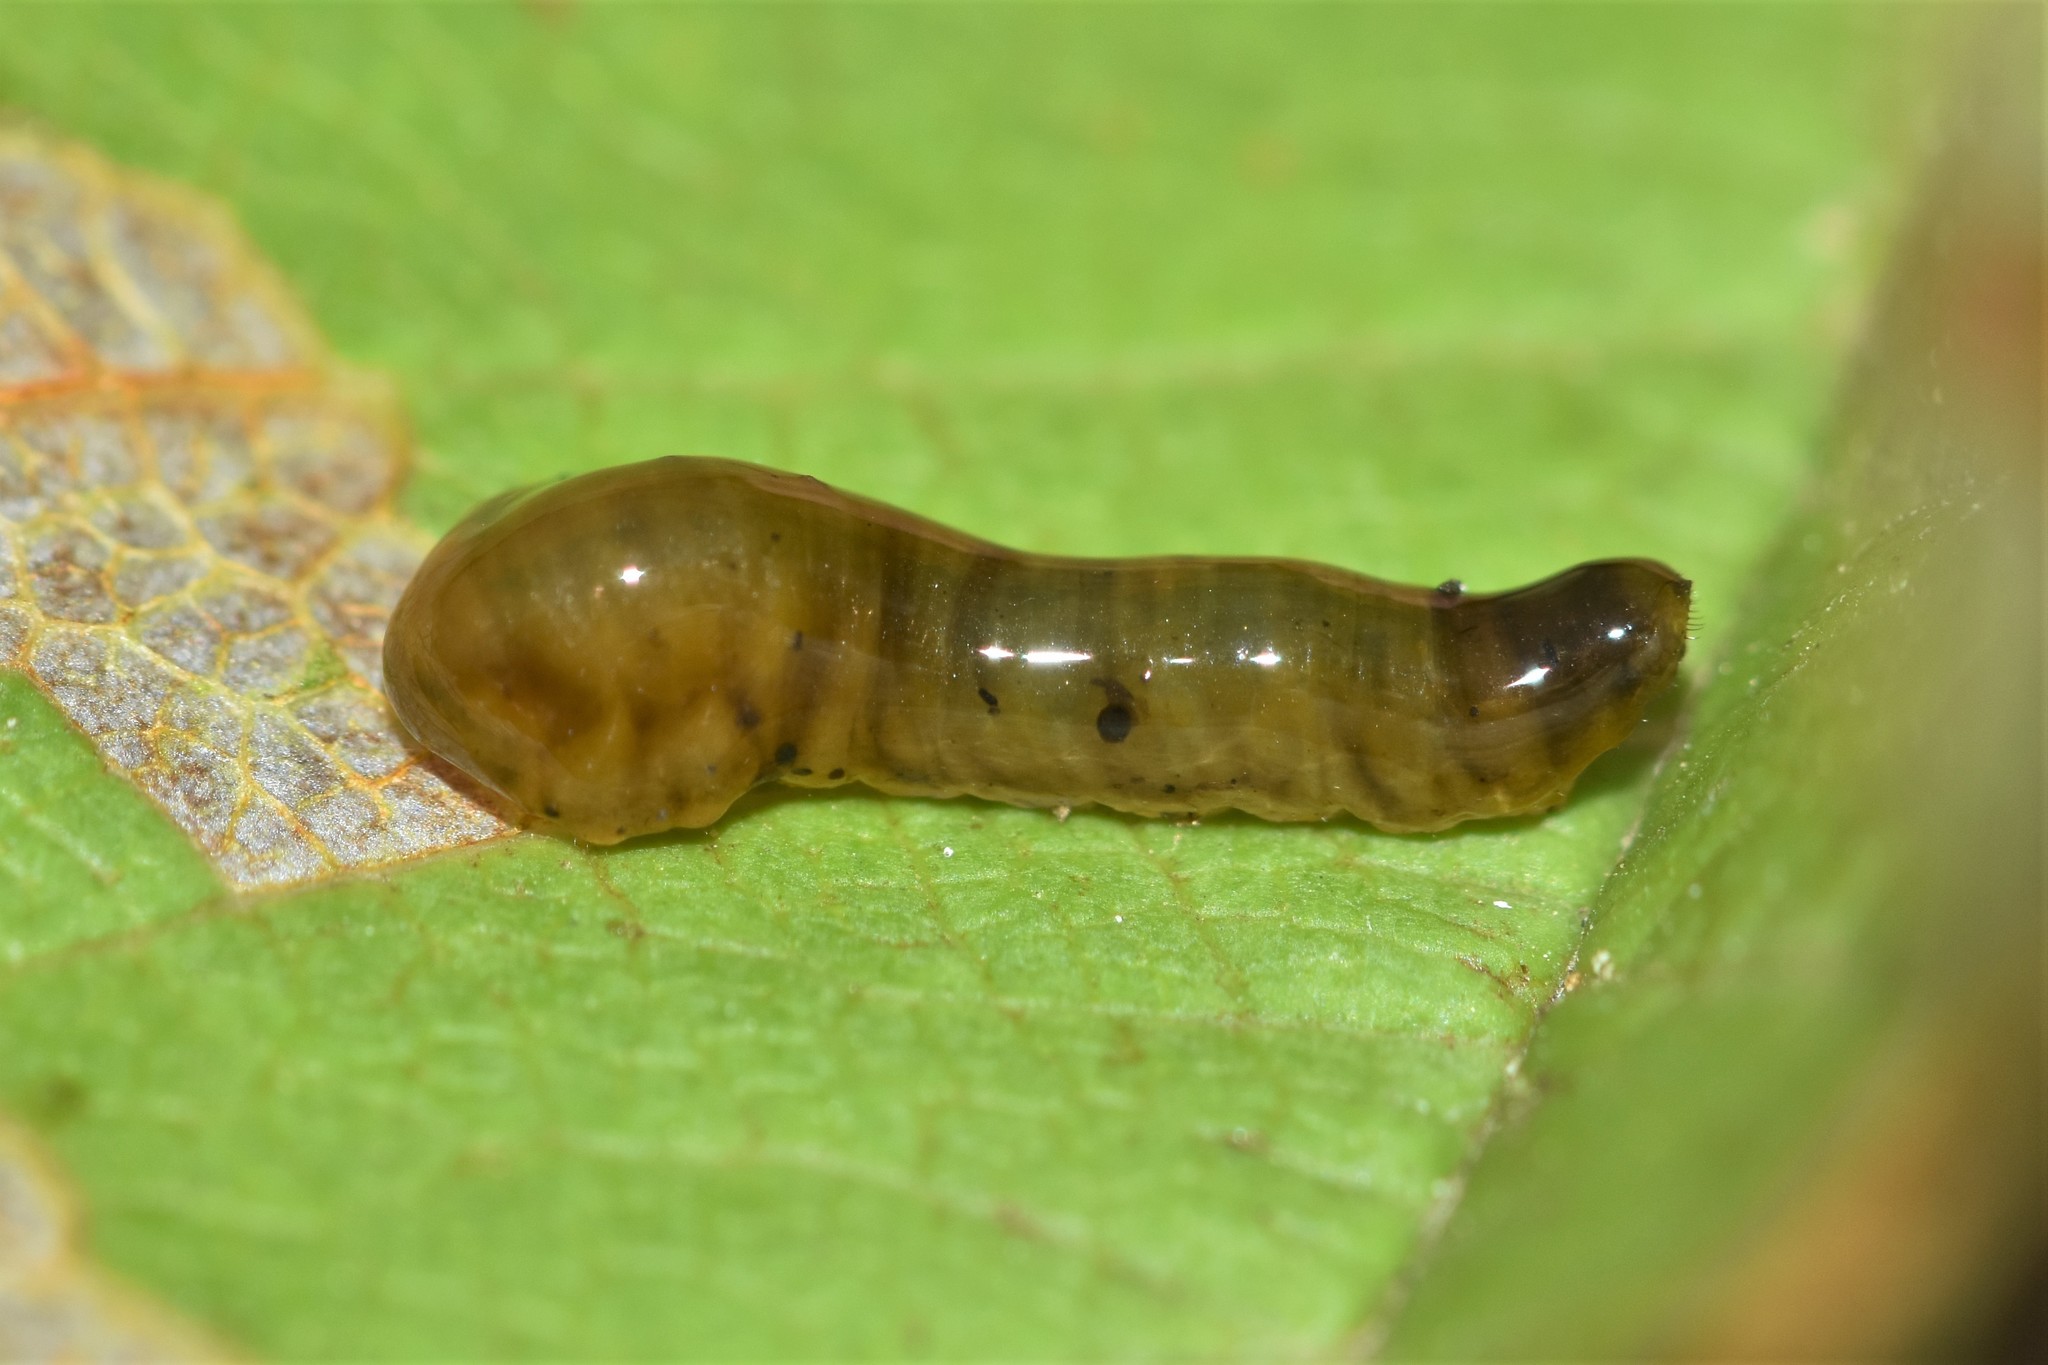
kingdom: Animalia
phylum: Arthropoda
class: Insecta
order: Hymenoptera
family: Tenthredinidae
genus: Caliroa
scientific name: Caliroa cerasi
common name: Pear sawfly
